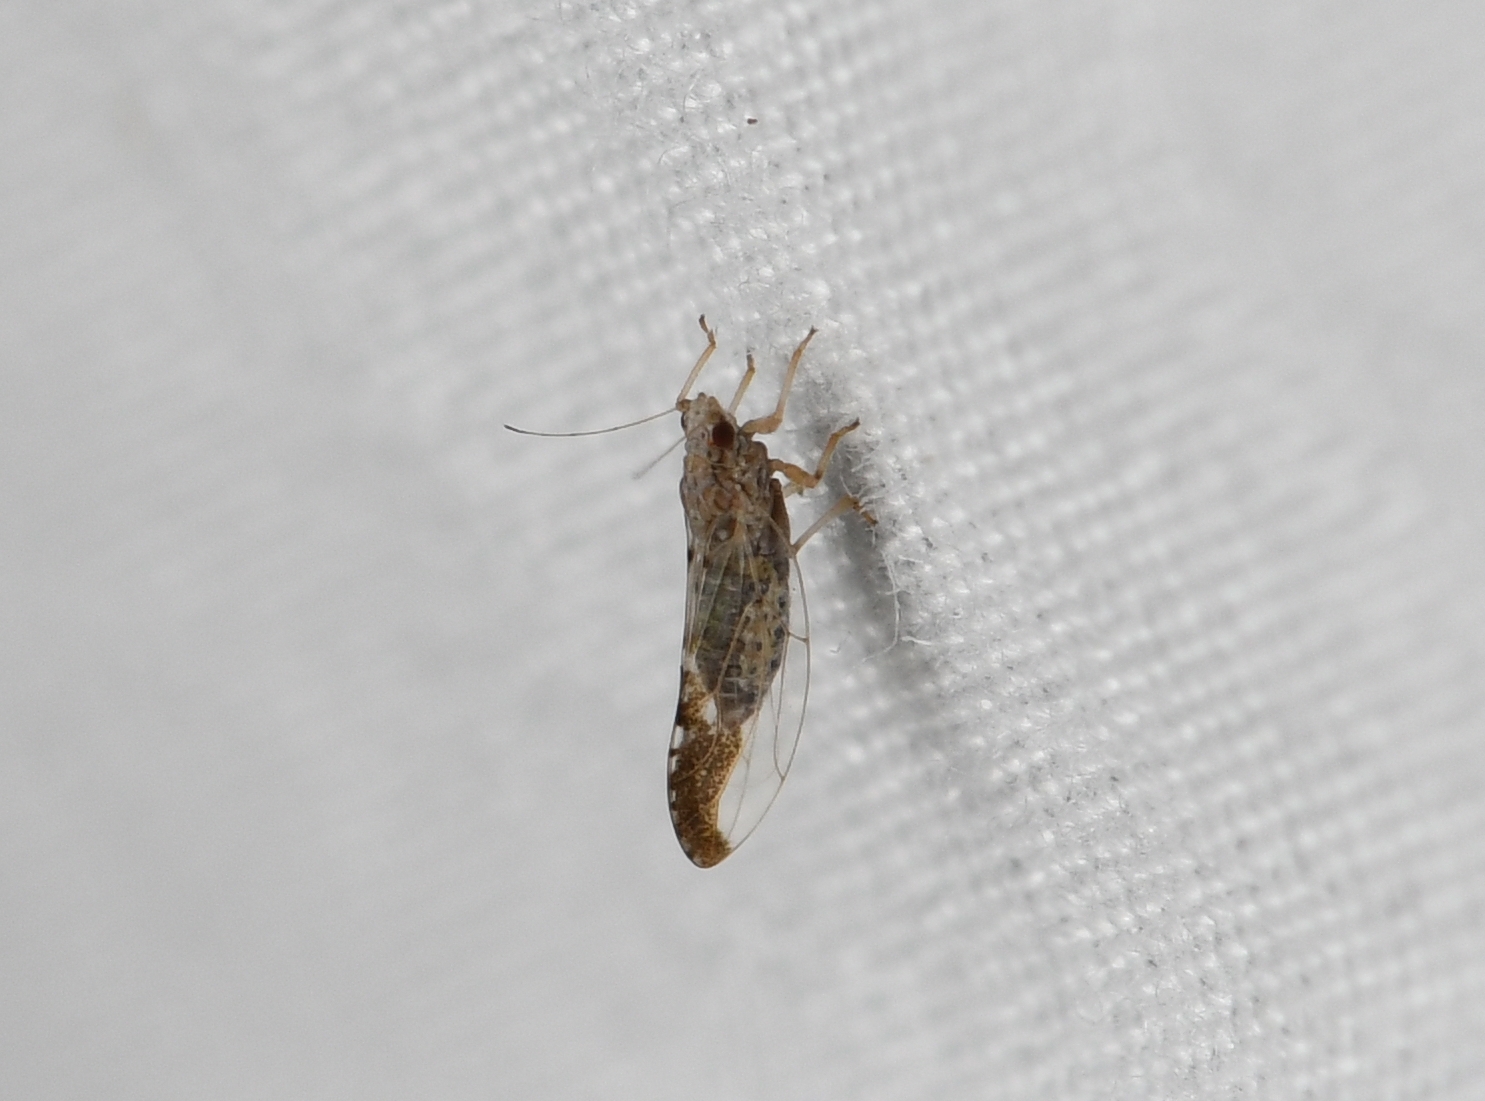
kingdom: Animalia
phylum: Arthropoda
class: Insecta
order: Hemiptera
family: Triozidae
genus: Leuronota
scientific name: Leuronota maculata
